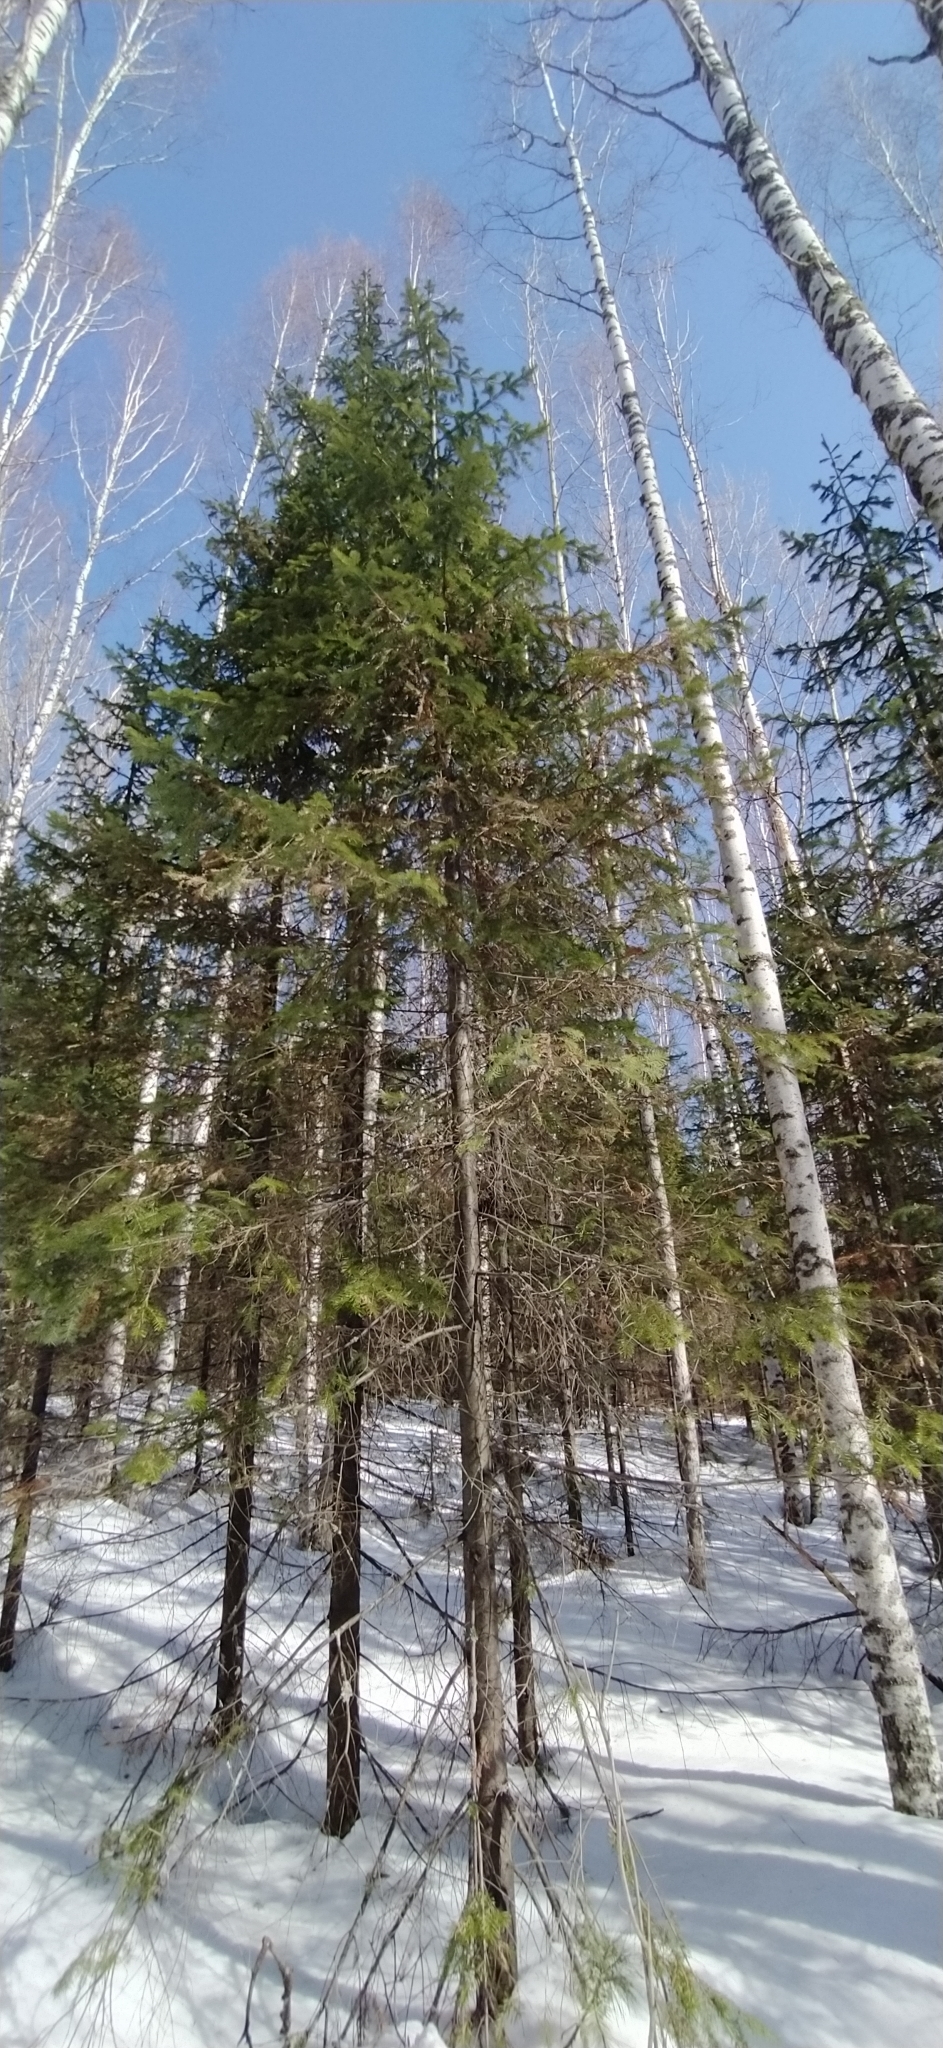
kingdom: Plantae
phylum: Tracheophyta
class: Pinopsida
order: Pinales
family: Pinaceae
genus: Abies
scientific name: Abies sibirica
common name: Siberian fir
